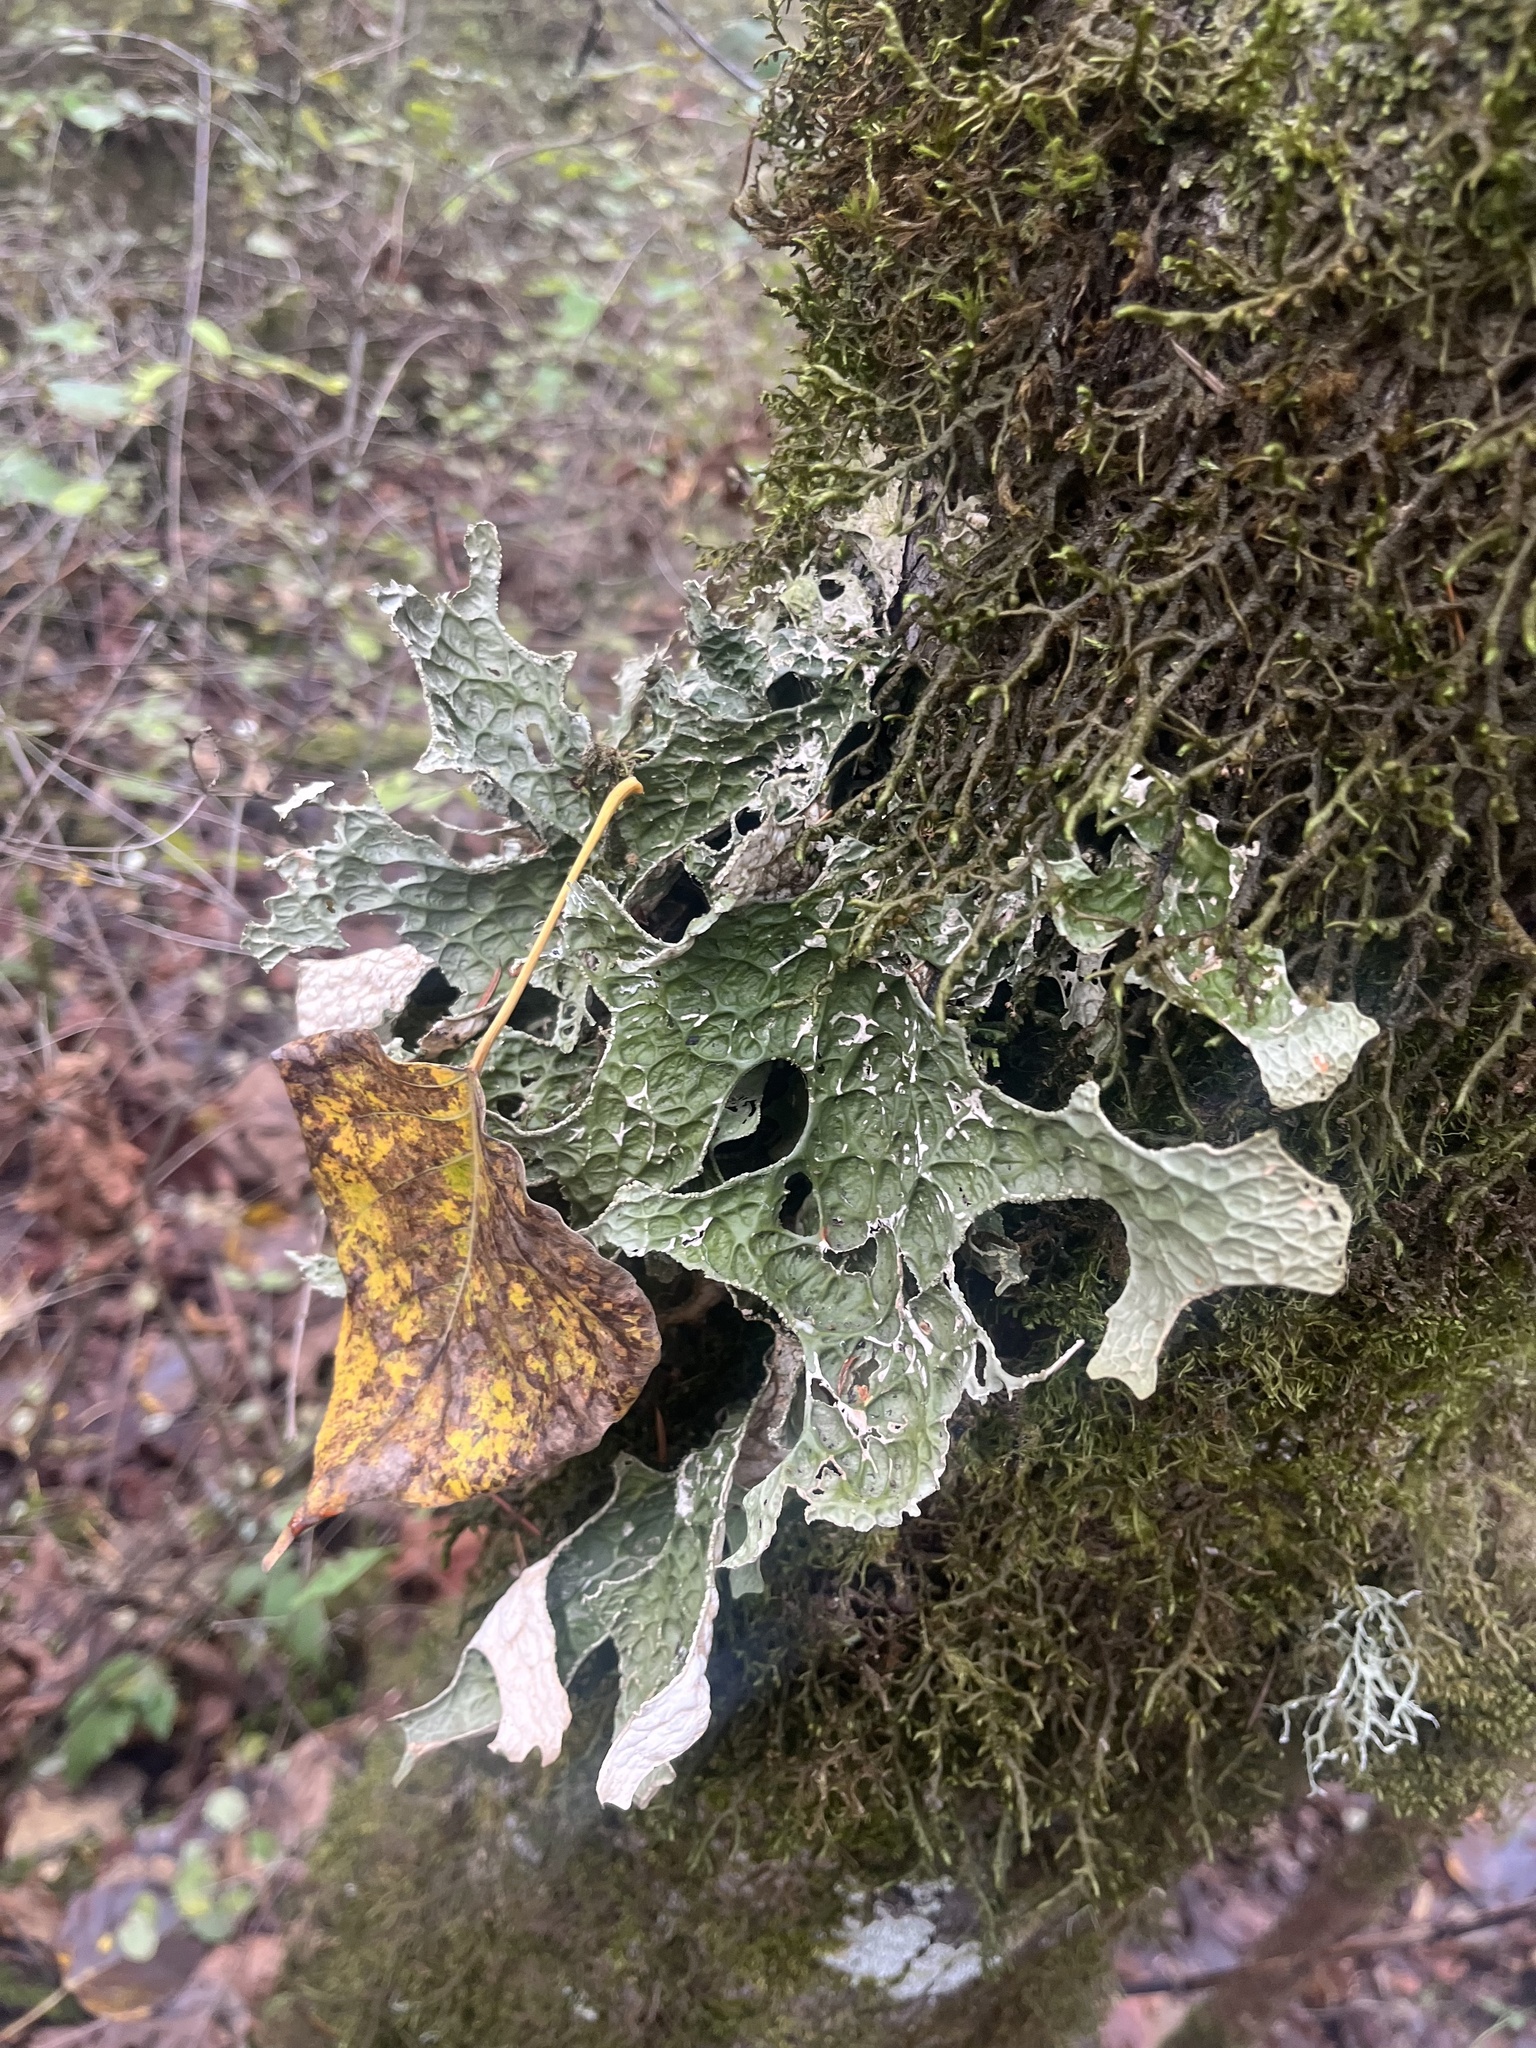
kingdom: Fungi
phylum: Ascomycota
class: Lecanoromycetes
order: Peltigerales
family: Lobariaceae
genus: Lobaria
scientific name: Lobaria pulmonaria
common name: Lungwort
